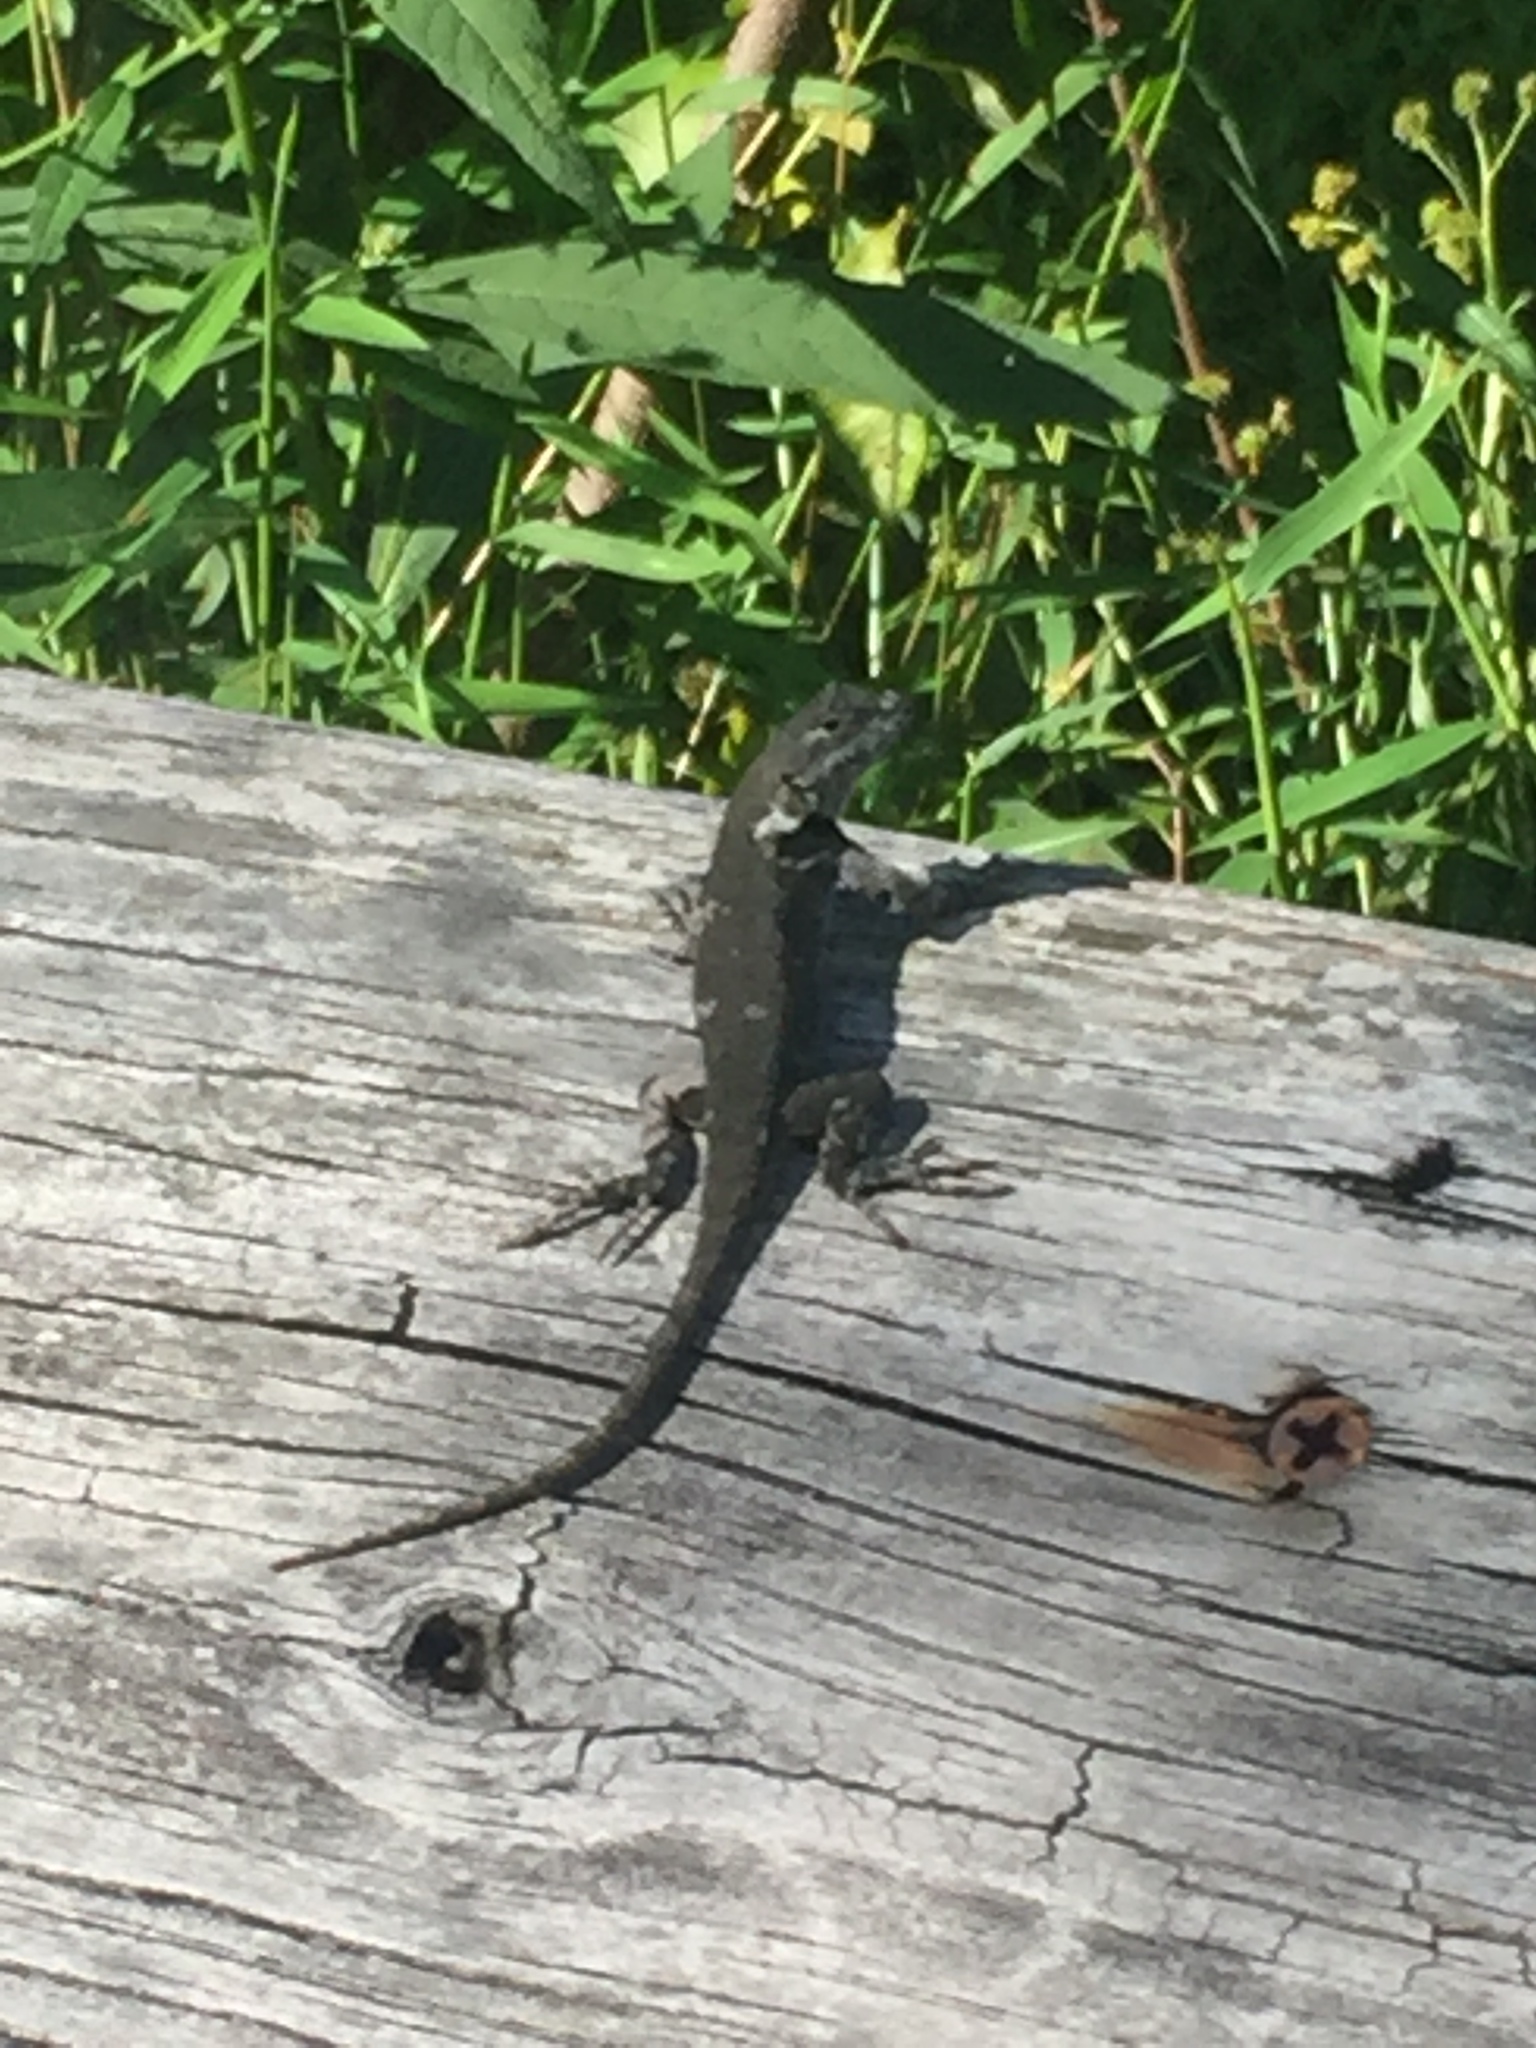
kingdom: Animalia
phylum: Chordata
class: Squamata
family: Phrynosomatidae
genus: Sceloporus
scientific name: Sceloporus undulatus
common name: Eastern fence lizard
